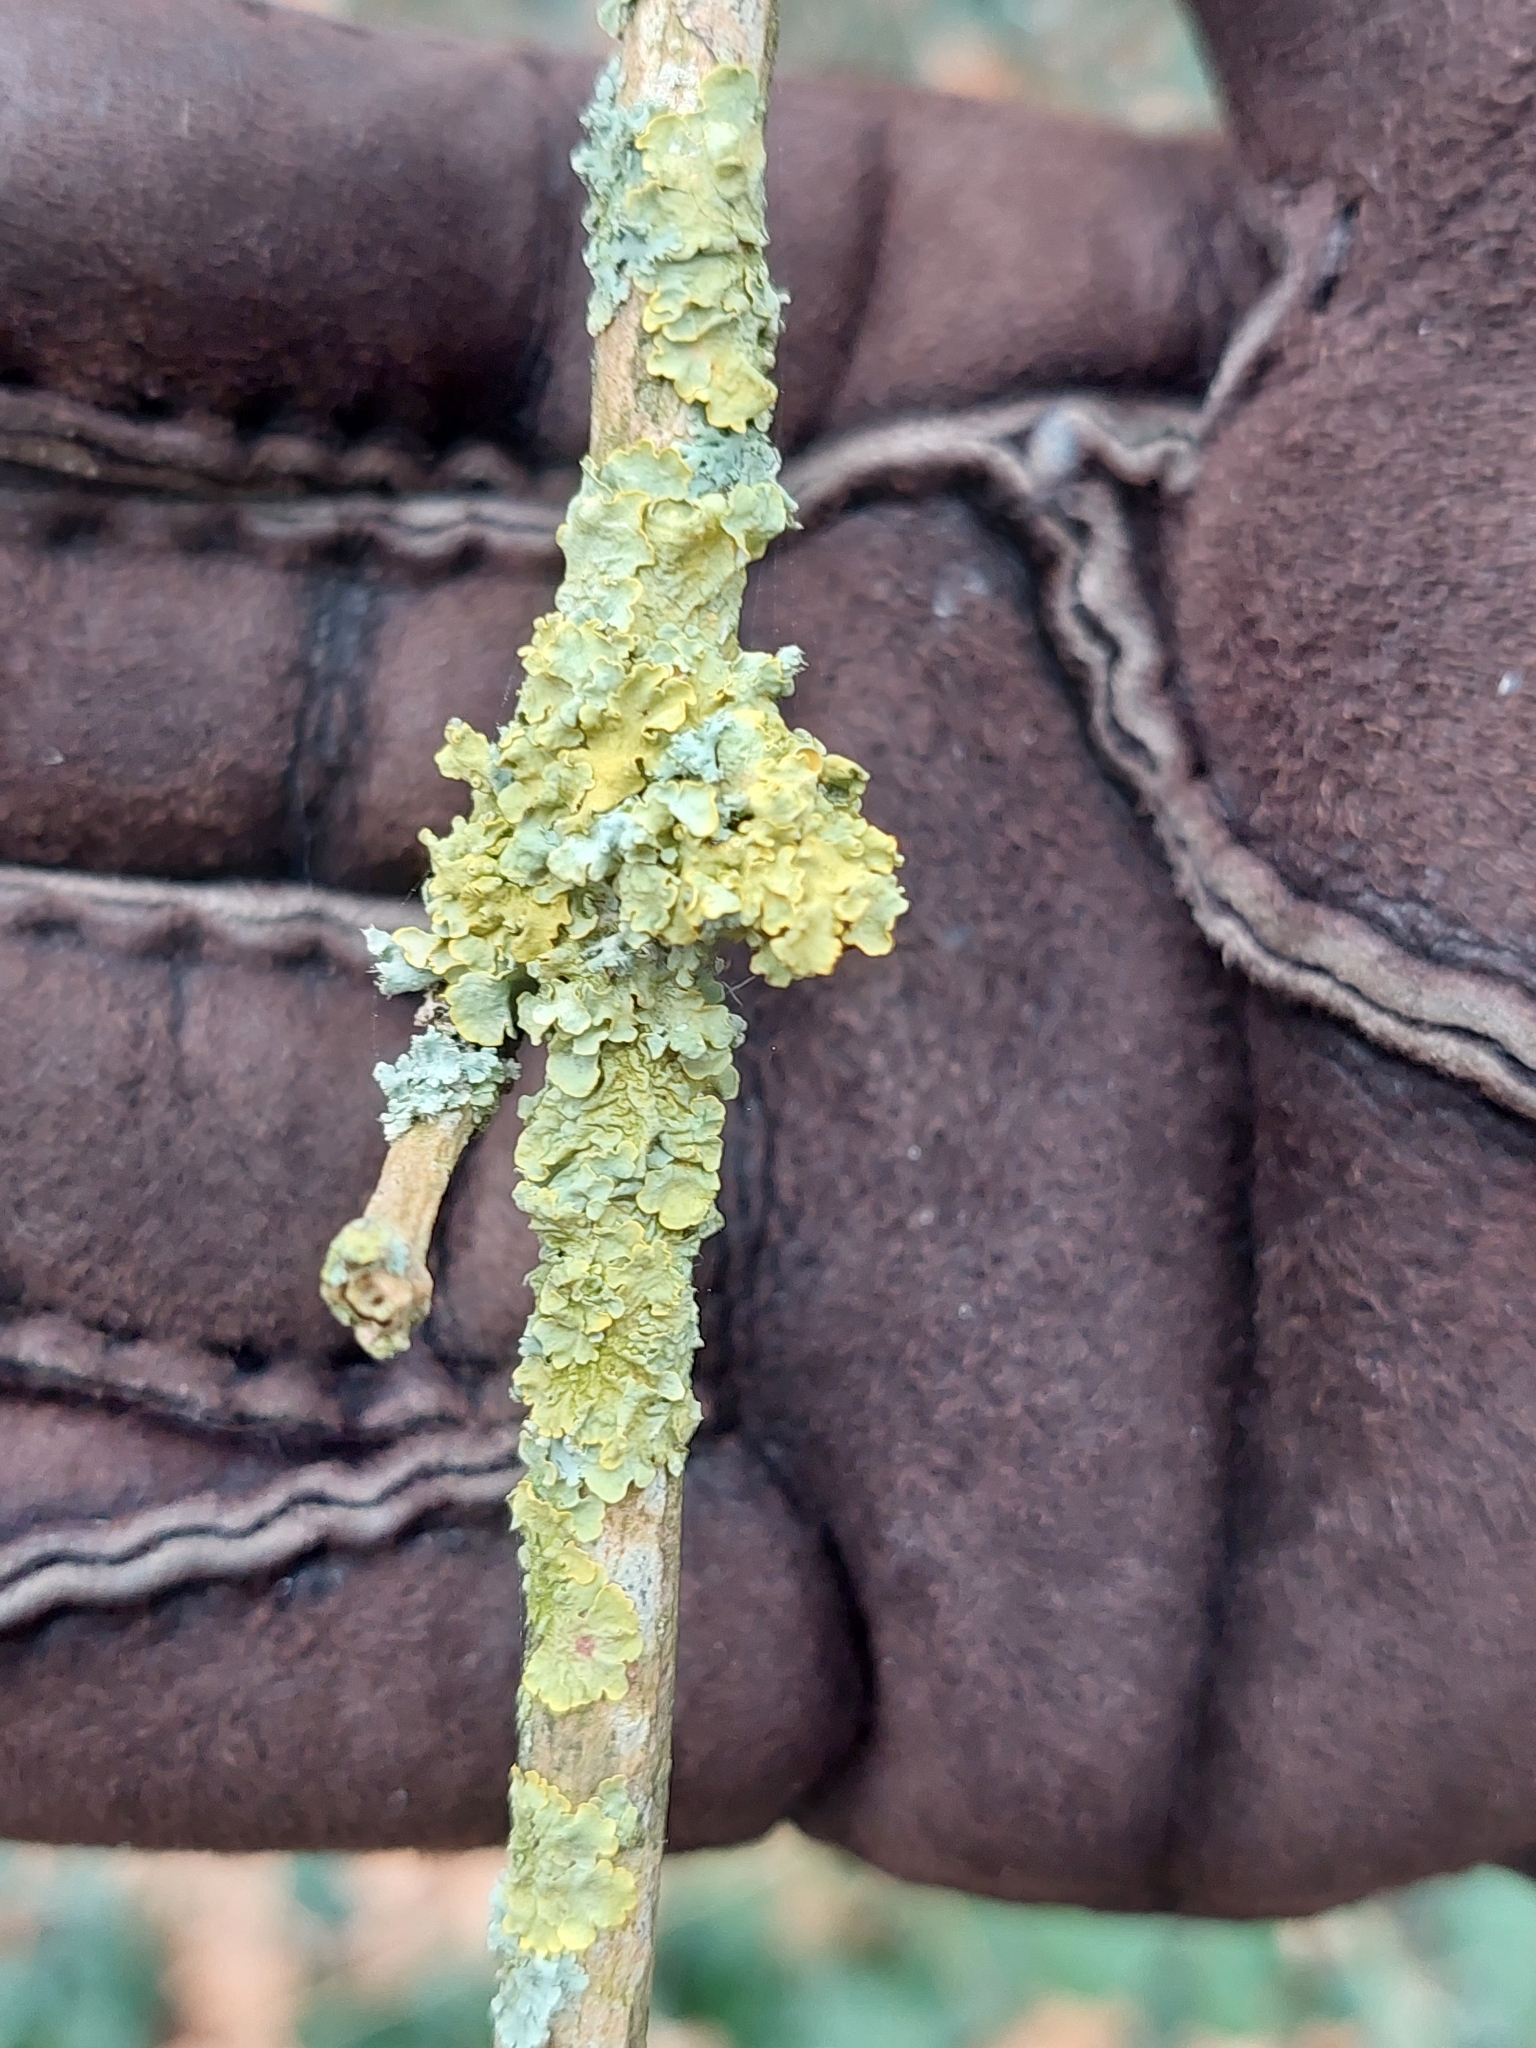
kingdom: Fungi
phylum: Ascomycota
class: Lecanoromycetes
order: Teloschistales
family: Teloschistaceae
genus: Xanthoria
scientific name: Xanthoria parietina
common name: Common orange lichen
